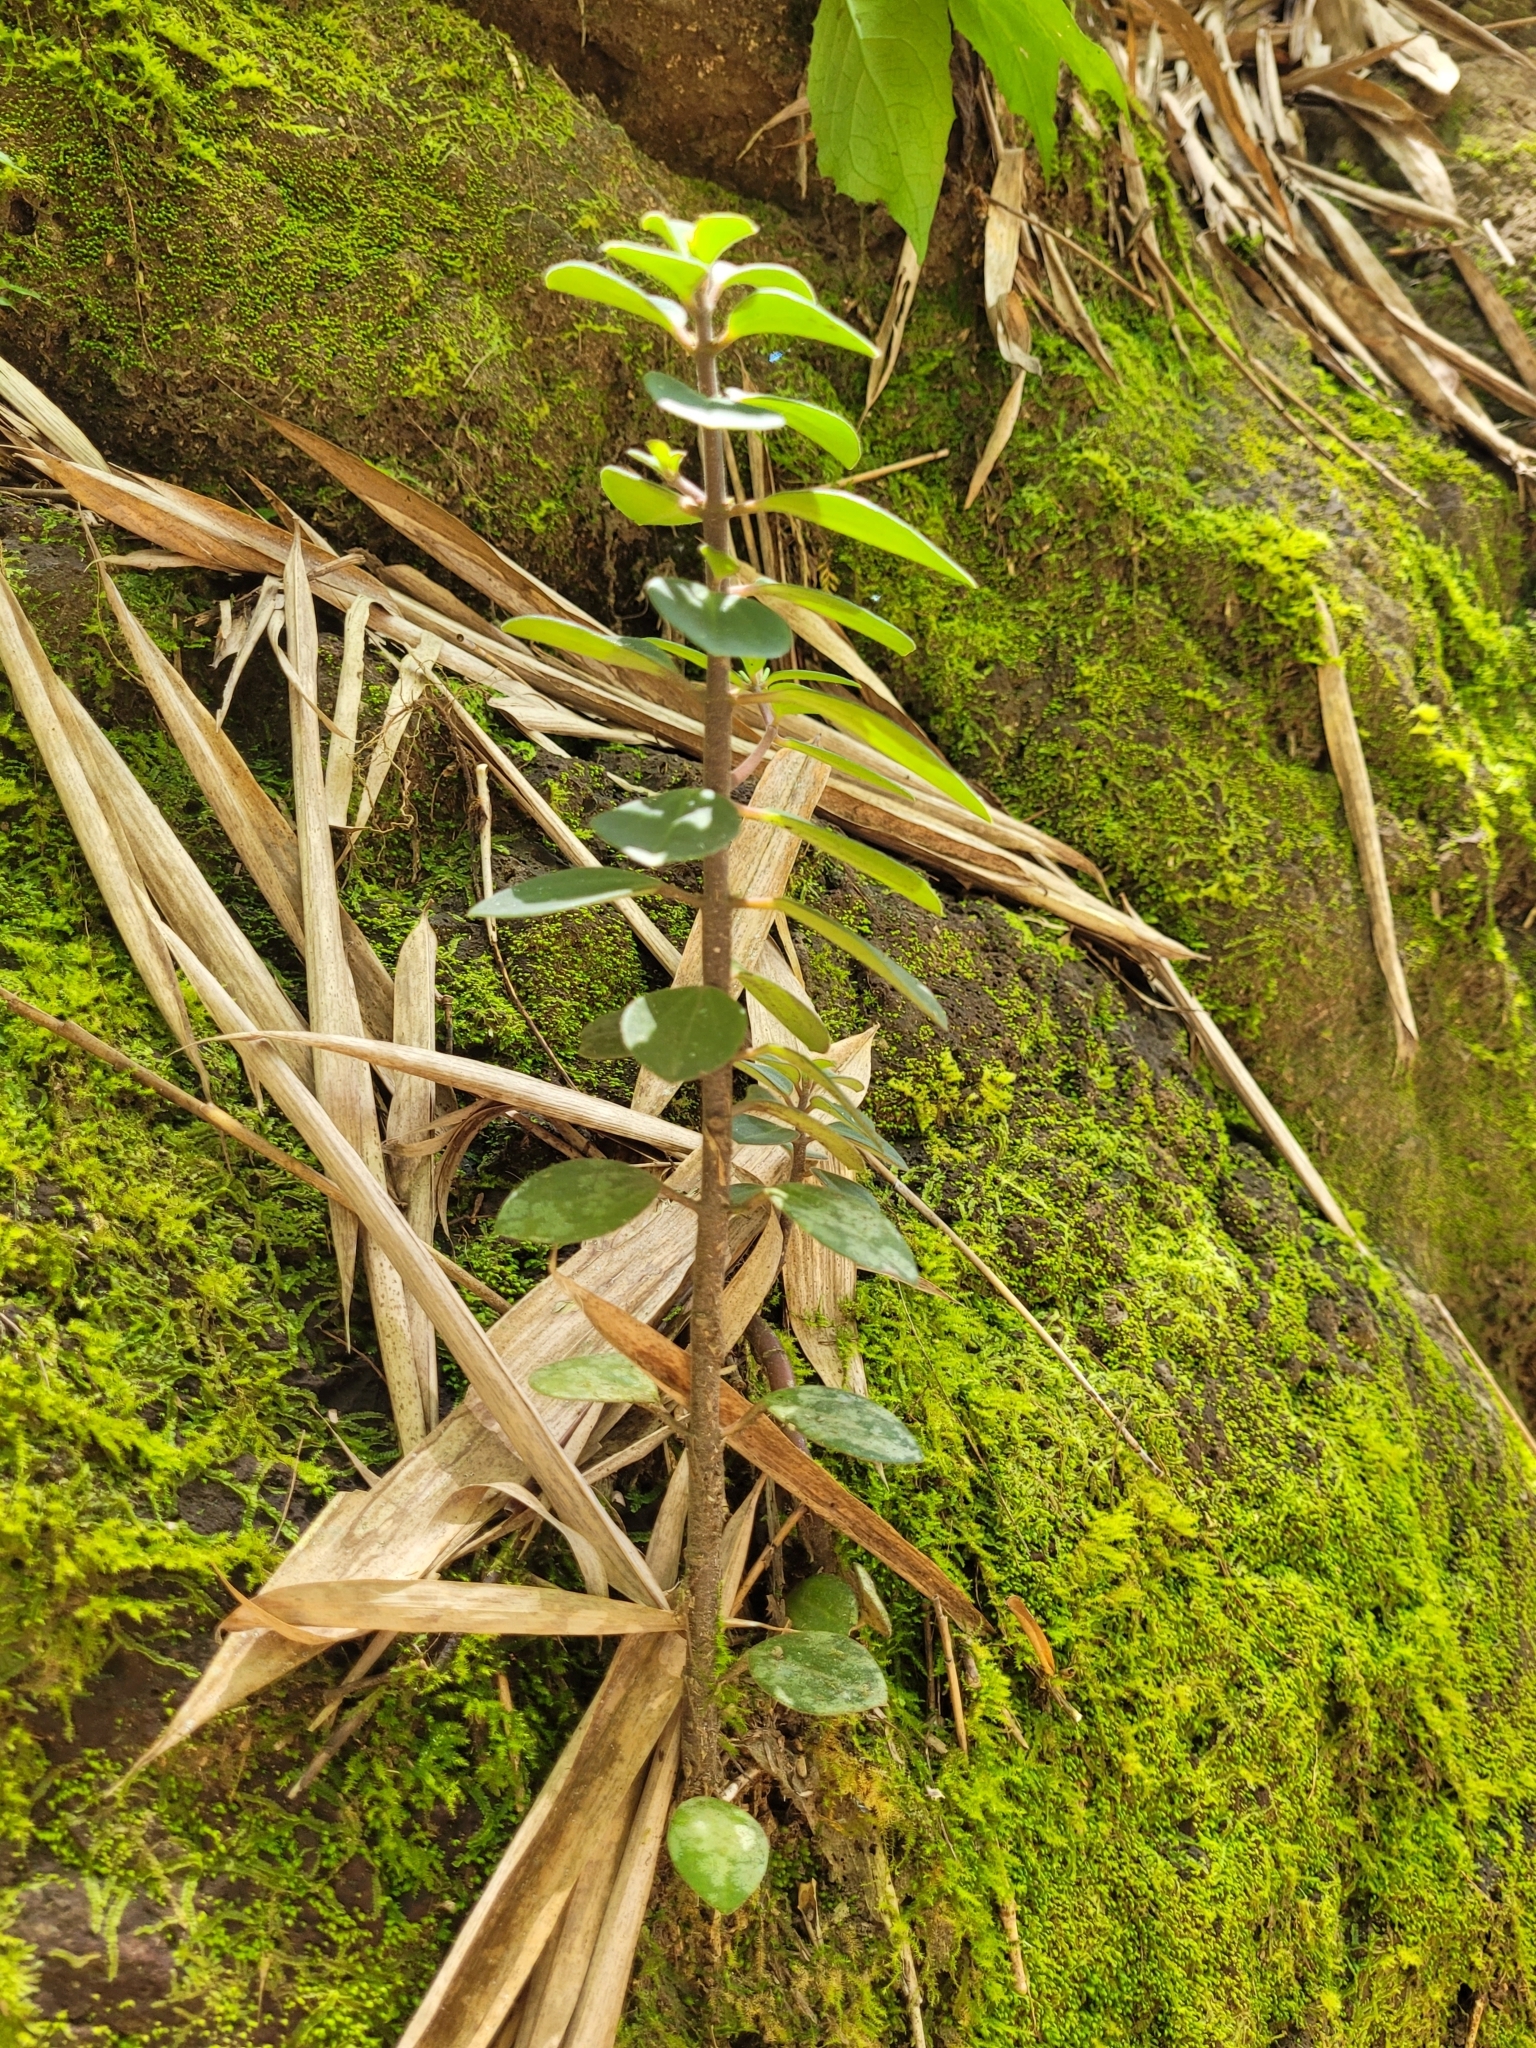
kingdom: Plantae
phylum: Tracheophyta
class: Magnoliopsida
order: Piperales
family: Piperaceae
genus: Peperomia
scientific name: Peperomia leptostachya
